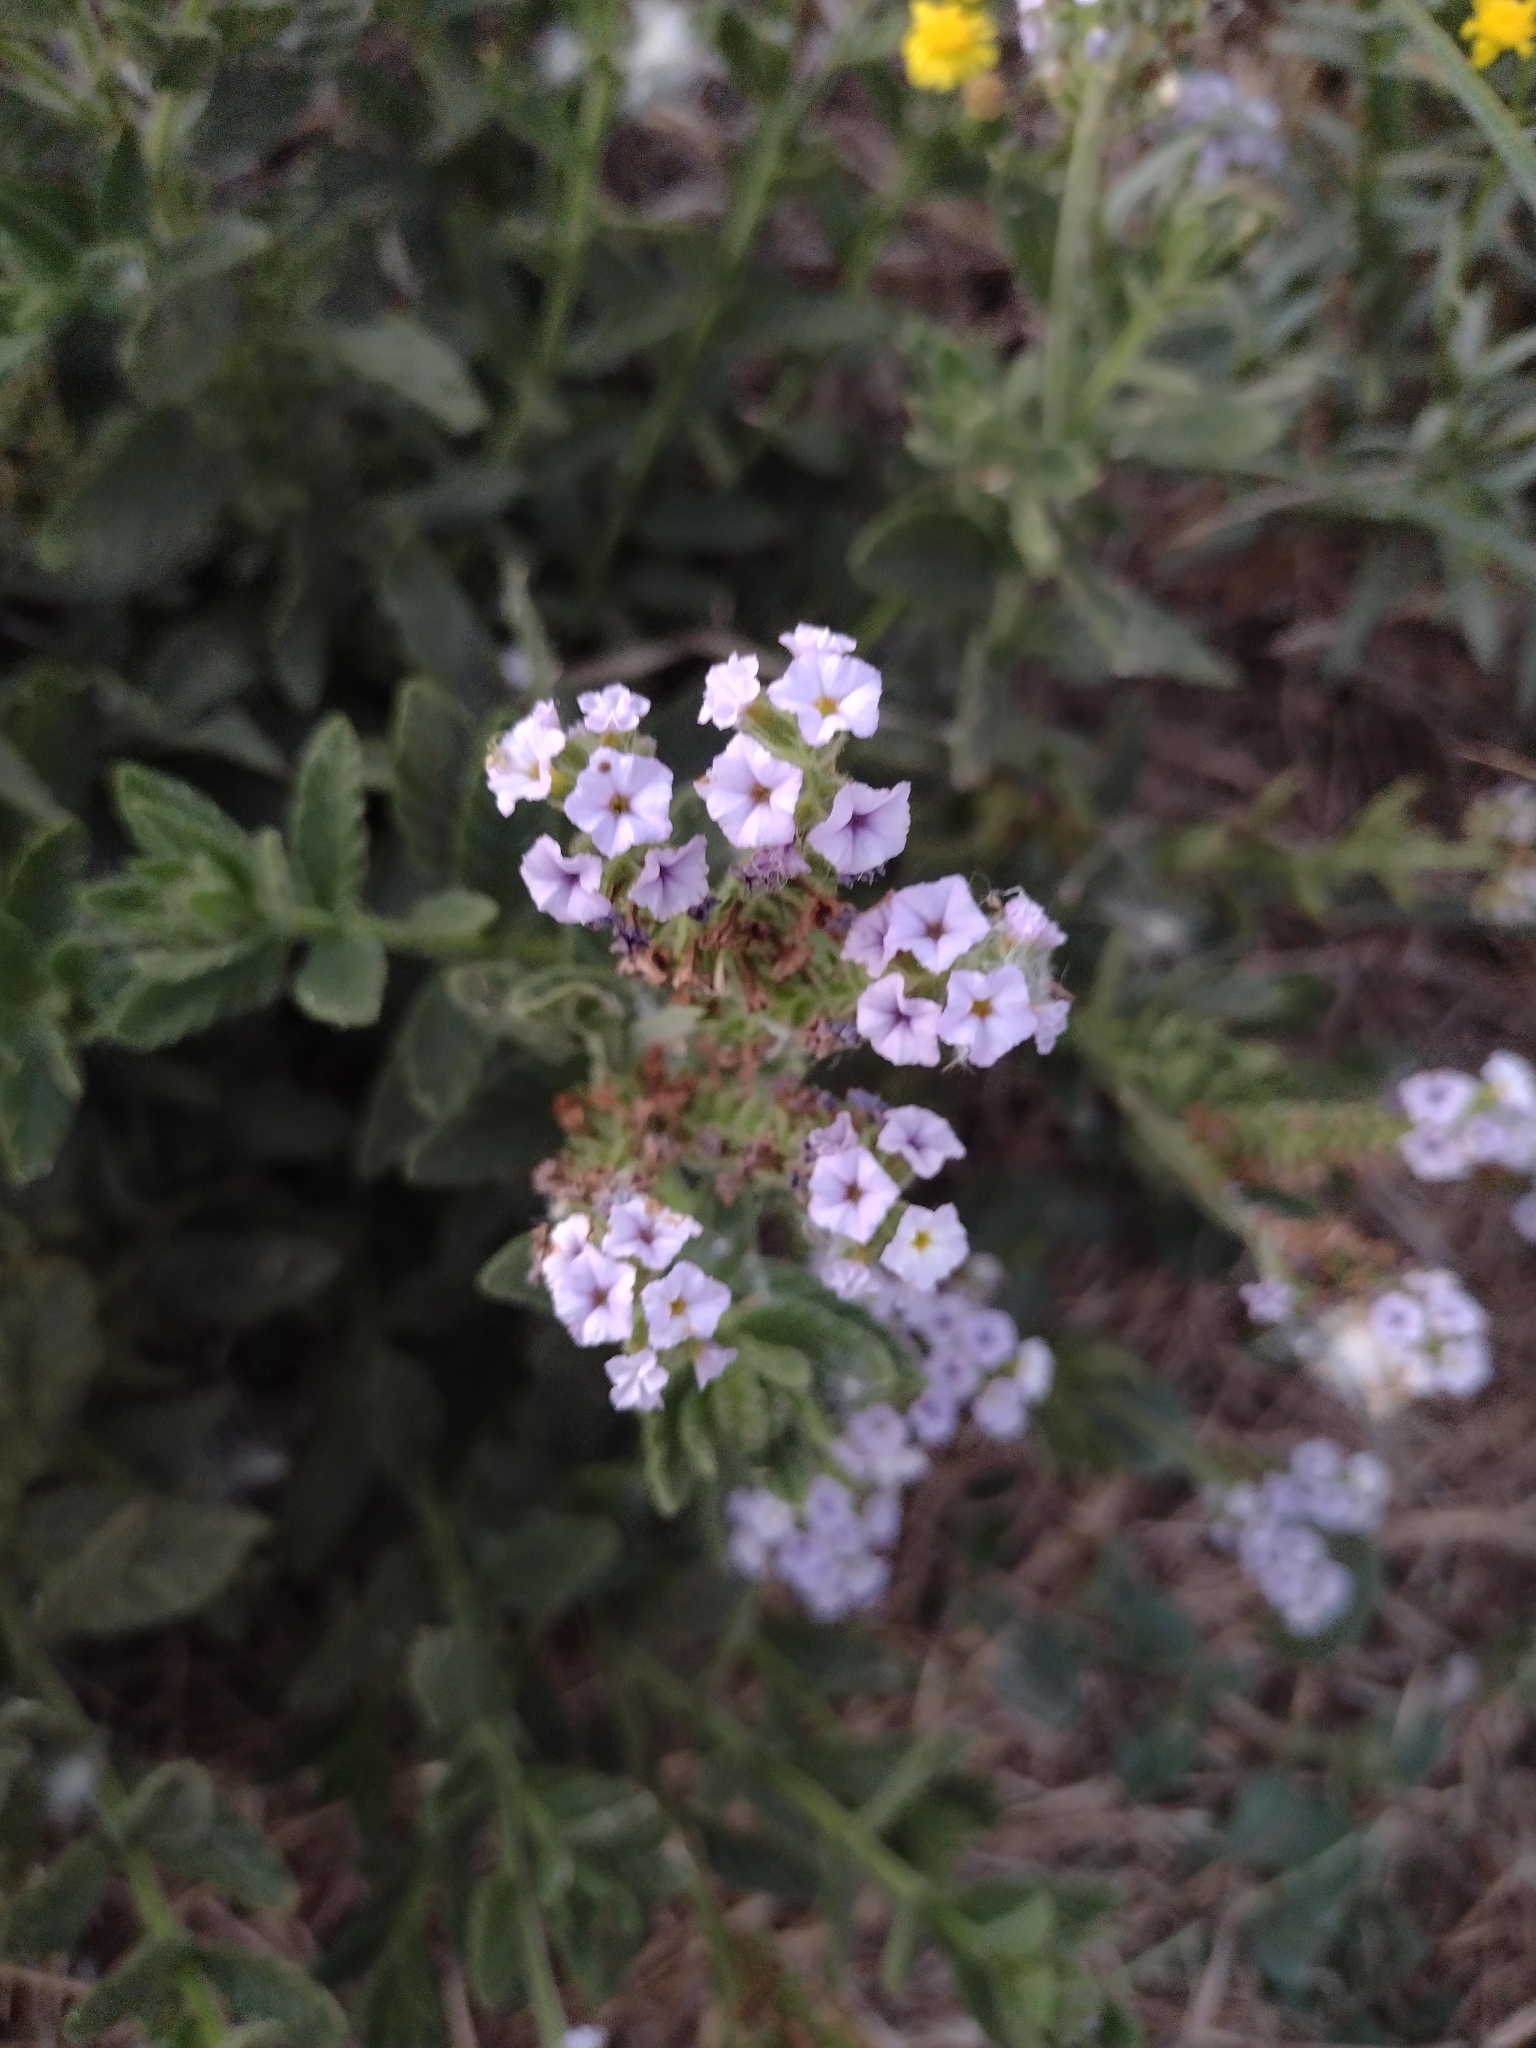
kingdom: Plantae
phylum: Tracheophyta
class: Magnoliopsida
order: Boraginales
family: Heliotropiaceae
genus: Heliotropium
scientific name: Heliotropium amplexicaule
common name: Clasping heliotrope
